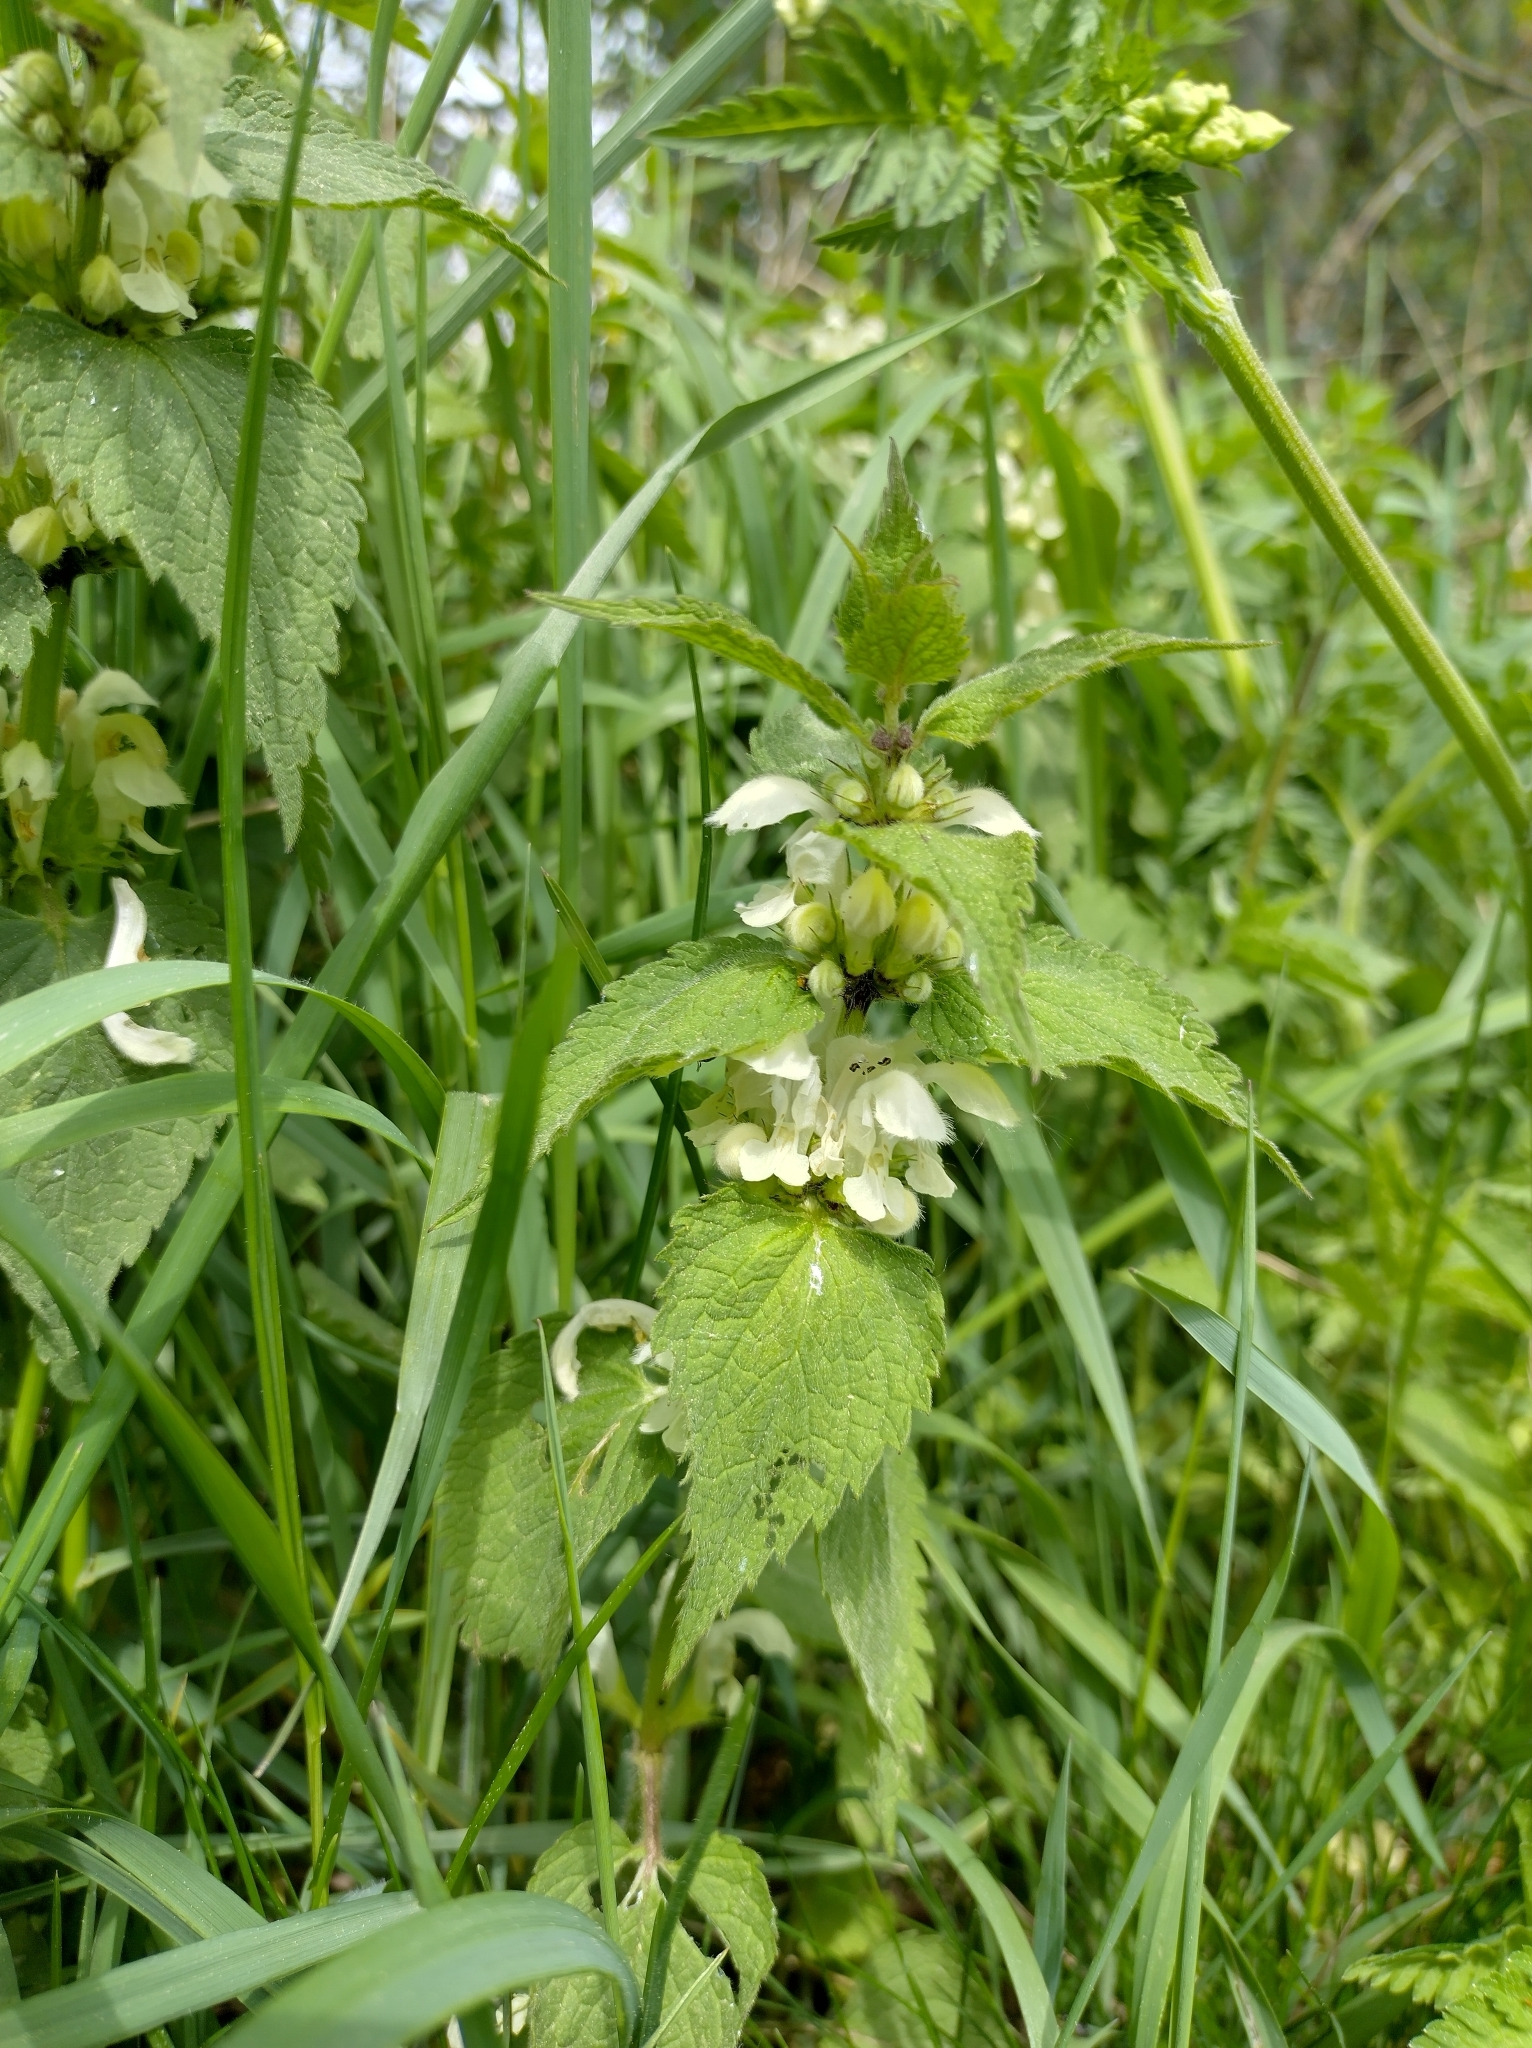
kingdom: Plantae
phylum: Tracheophyta
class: Magnoliopsida
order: Lamiales
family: Lamiaceae
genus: Lamium
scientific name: Lamium album
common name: White dead-nettle
